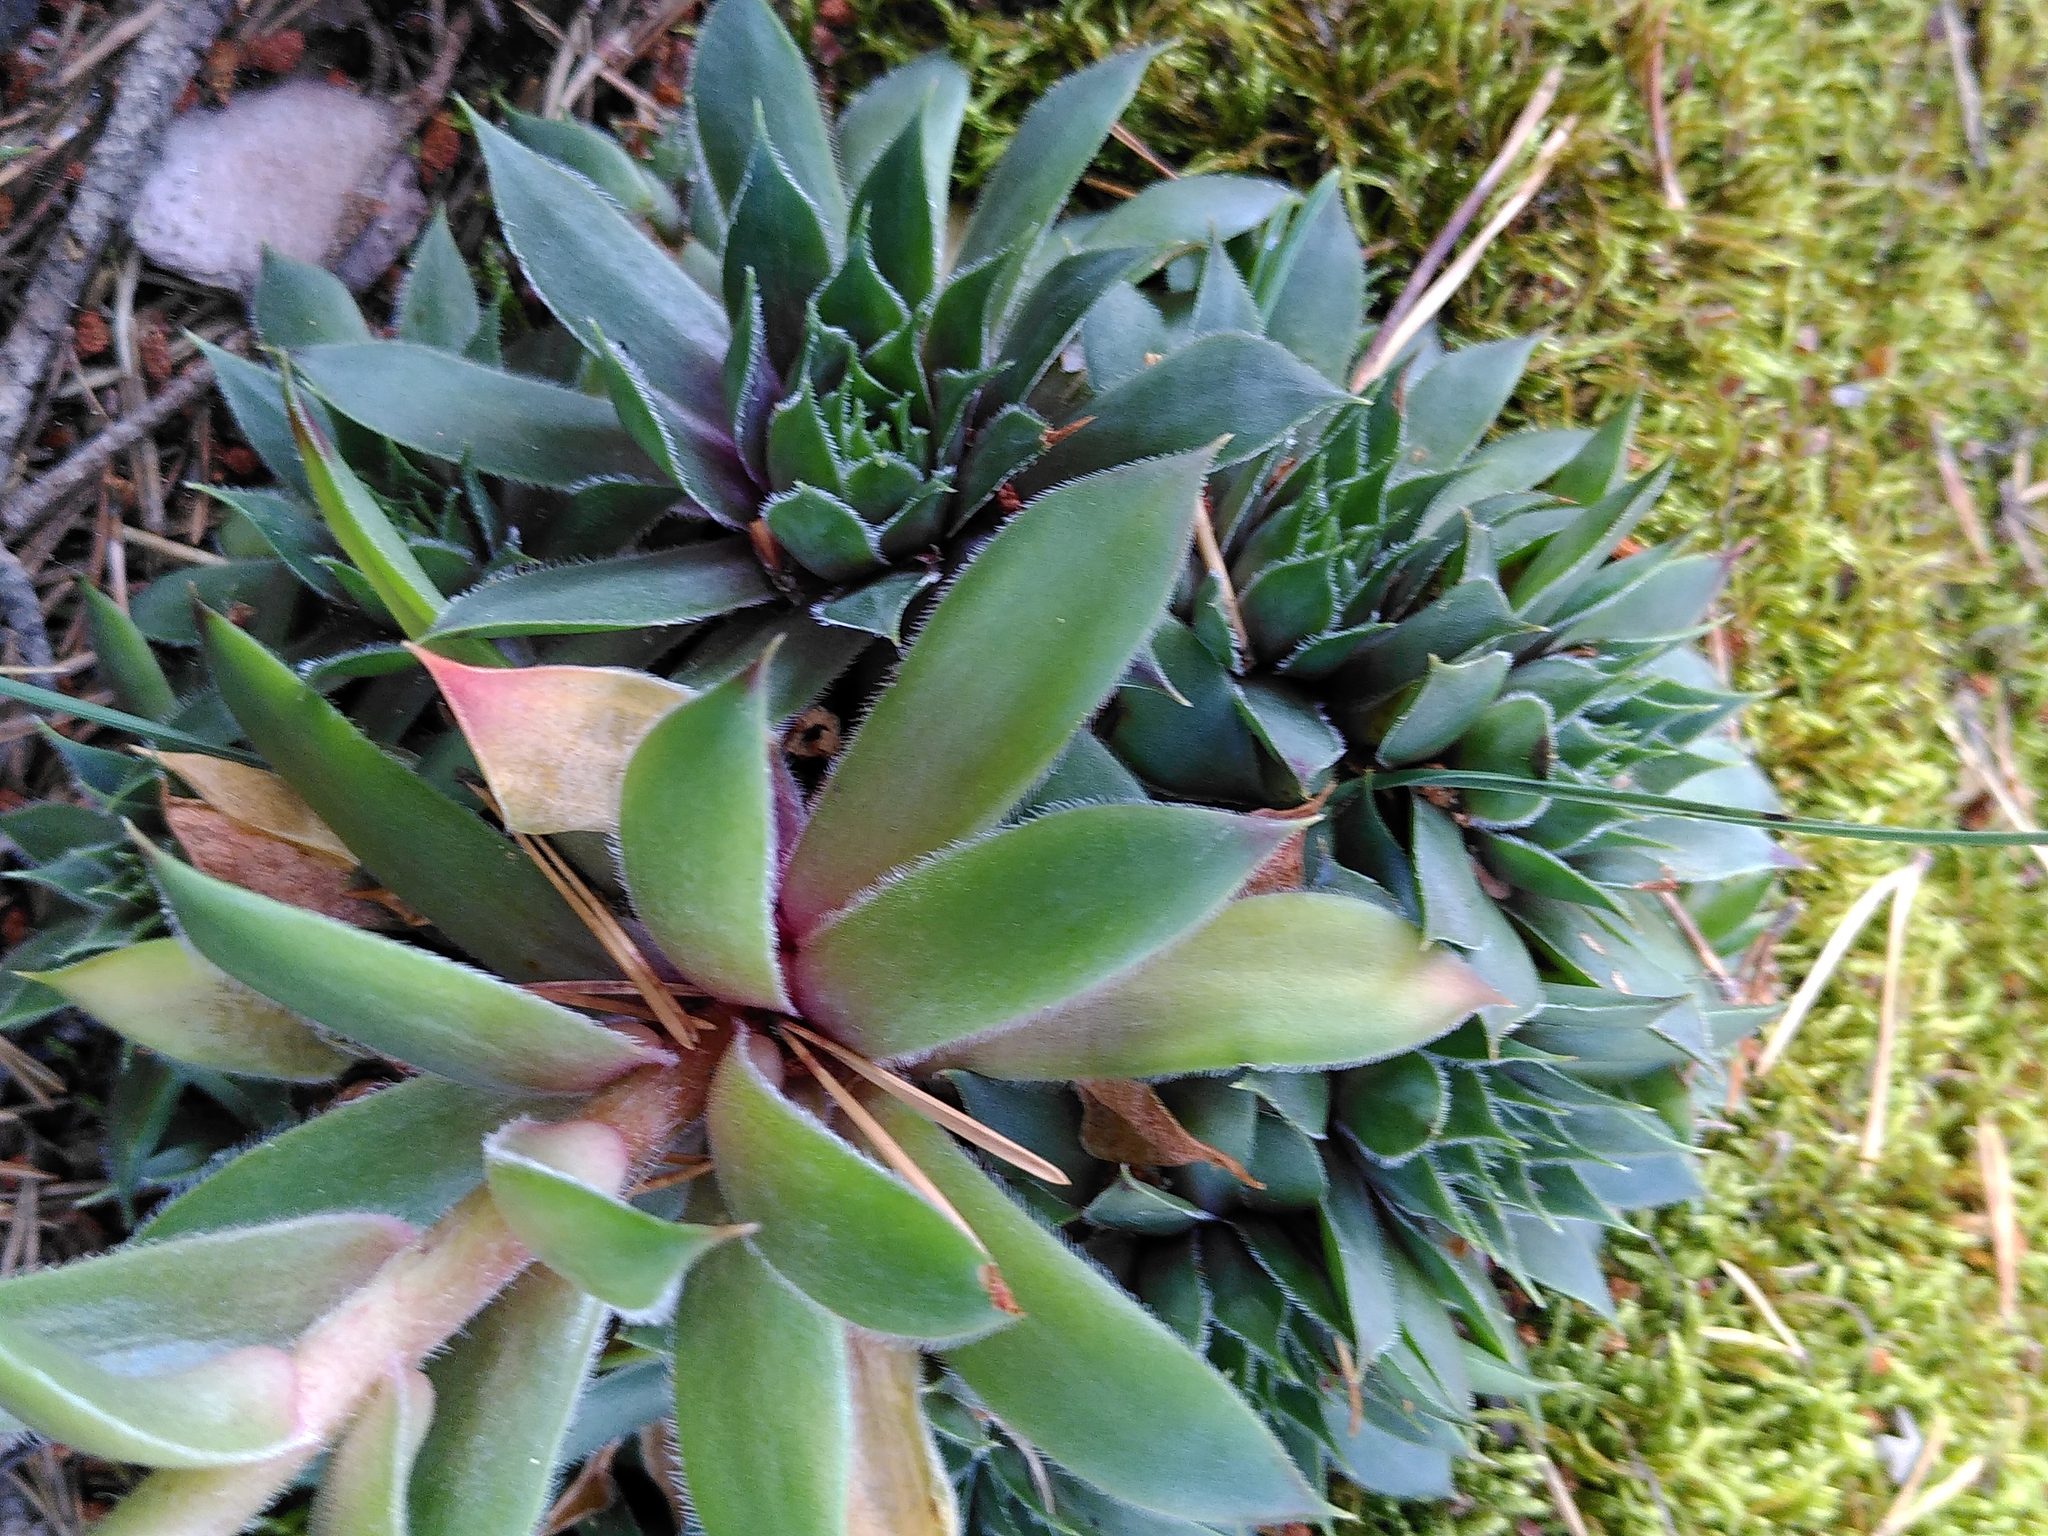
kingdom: Plantae
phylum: Tracheophyta
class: Magnoliopsida
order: Saxifragales
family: Crassulaceae
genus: Sempervivum
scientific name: Sempervivum tectorum
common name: House-leek
